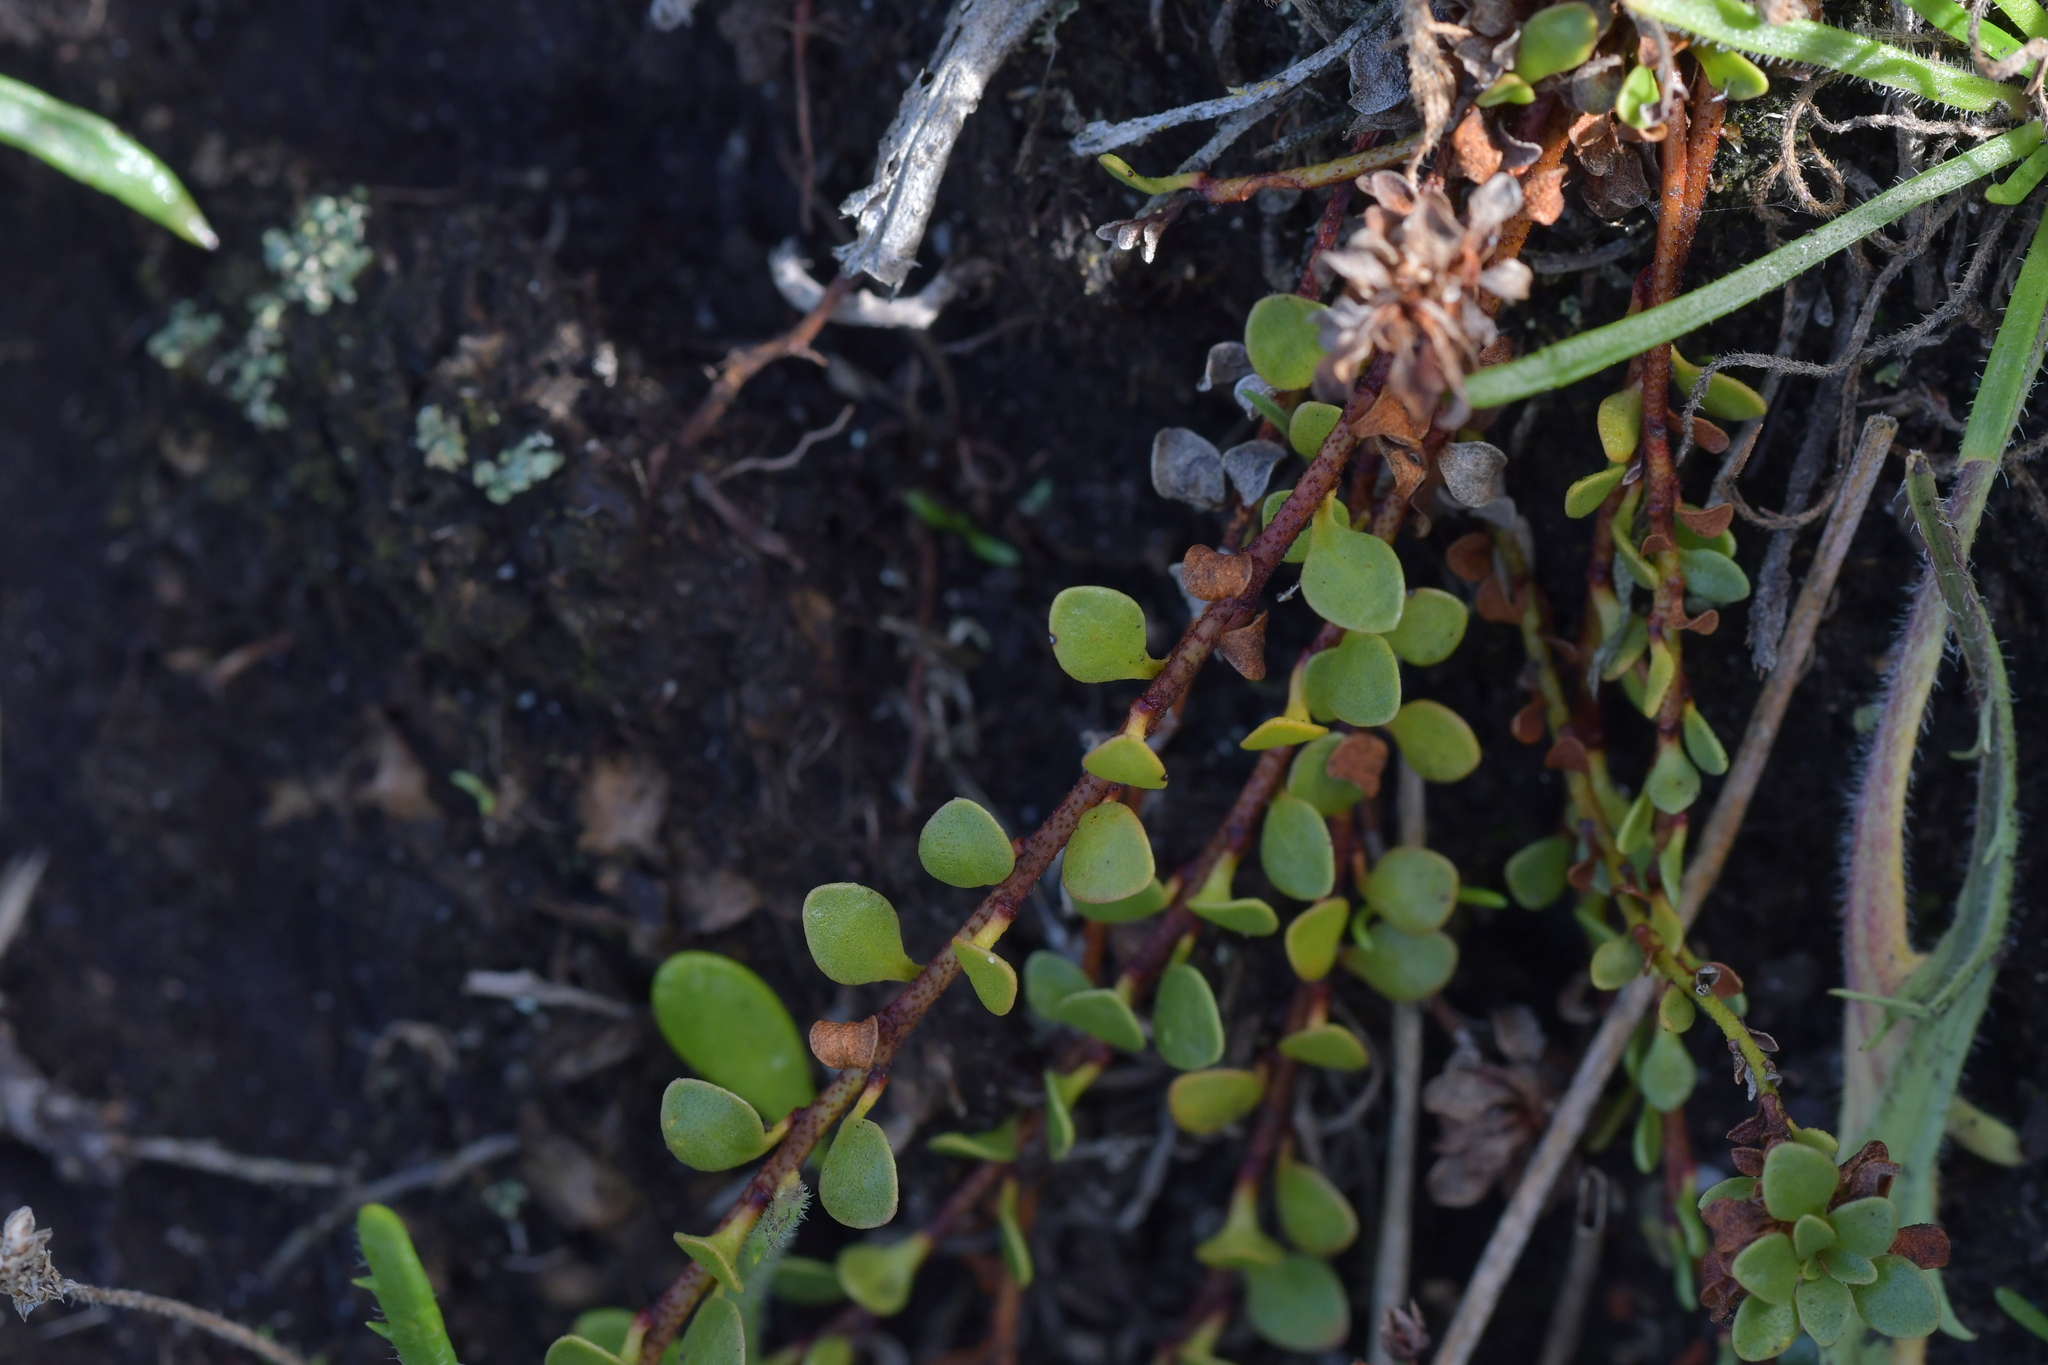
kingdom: Plantae
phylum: Tracheophyta
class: Magnoliopsida
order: Ericales
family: Primulaceae
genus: Samolus
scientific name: Samolus repens
